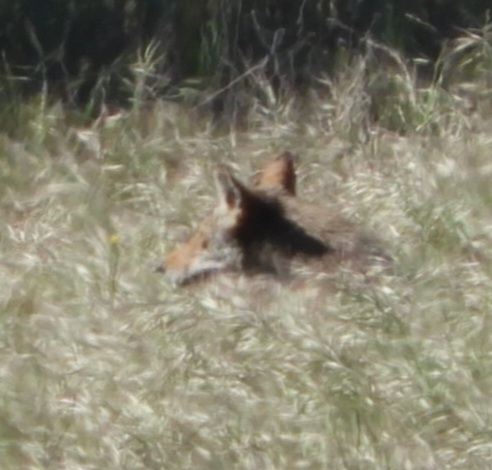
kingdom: Animalia
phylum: Chordata
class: Mammalia
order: Carnivora
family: Canidae
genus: Canis
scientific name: Canis latrans
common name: Coyote
